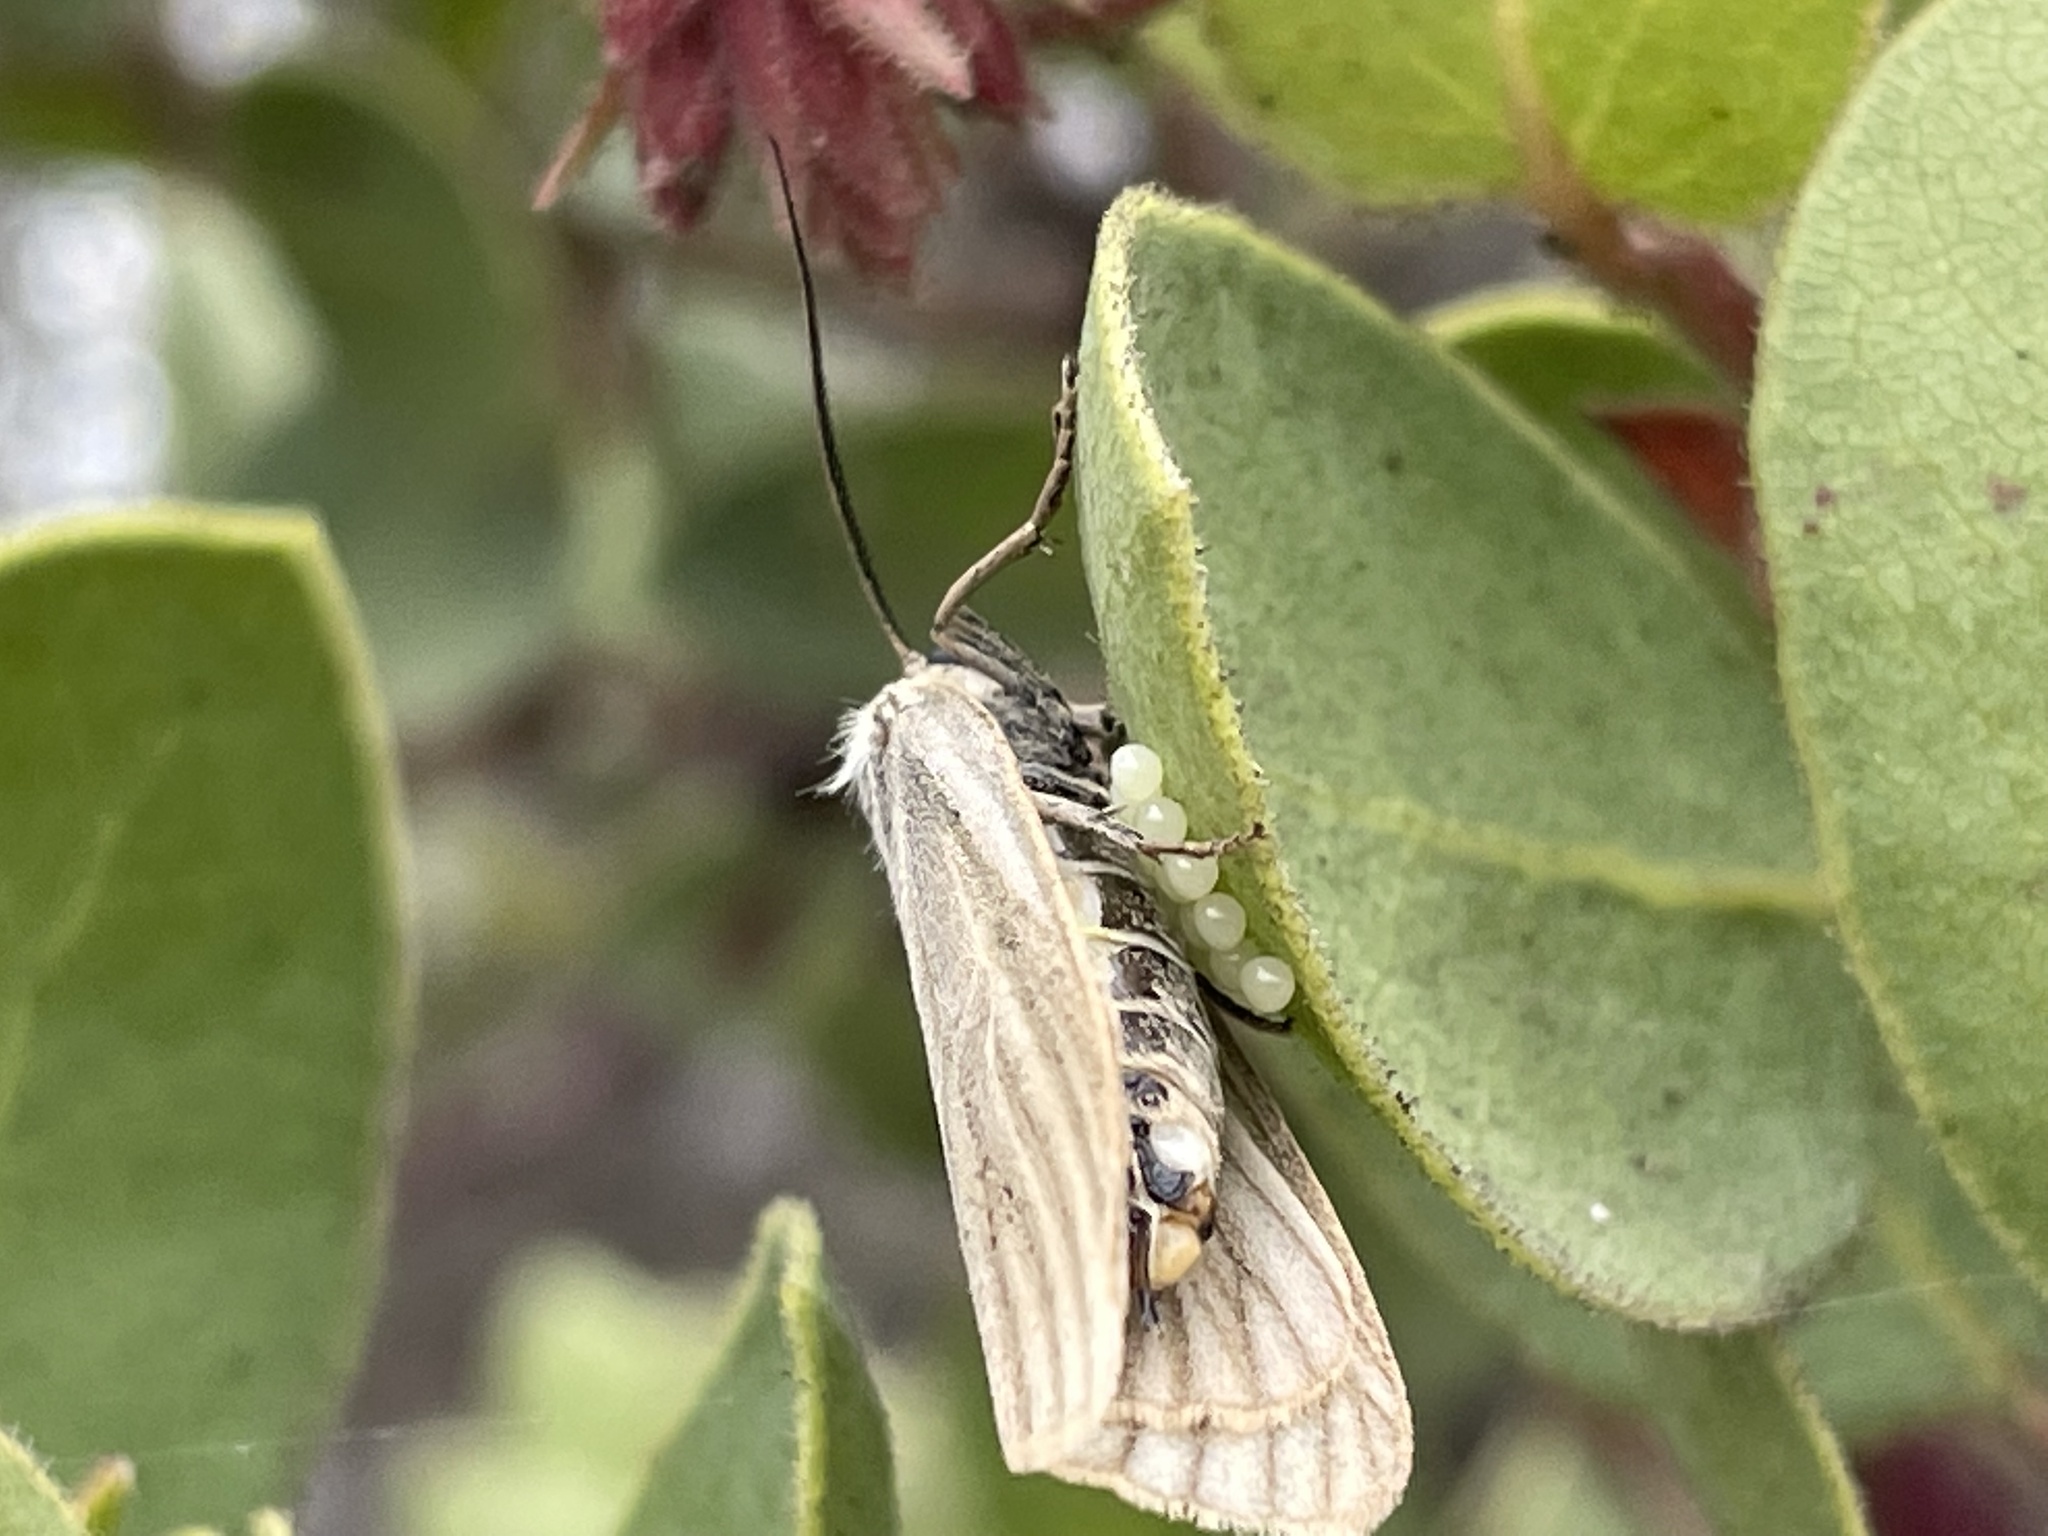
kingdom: Animalia
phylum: Arthropoda
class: Insecta
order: Lepidoptera
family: Notodontidae
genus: Phryganidia
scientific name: Phryganidia californica
